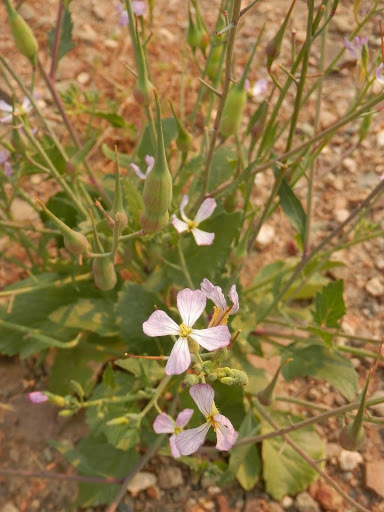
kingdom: Plantae
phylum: Tracheophyta
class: Magnoliopsida
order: Brassicales
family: Brassicaceae
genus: Raphanus
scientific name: Raphanus raphanistrum
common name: Wild radish
